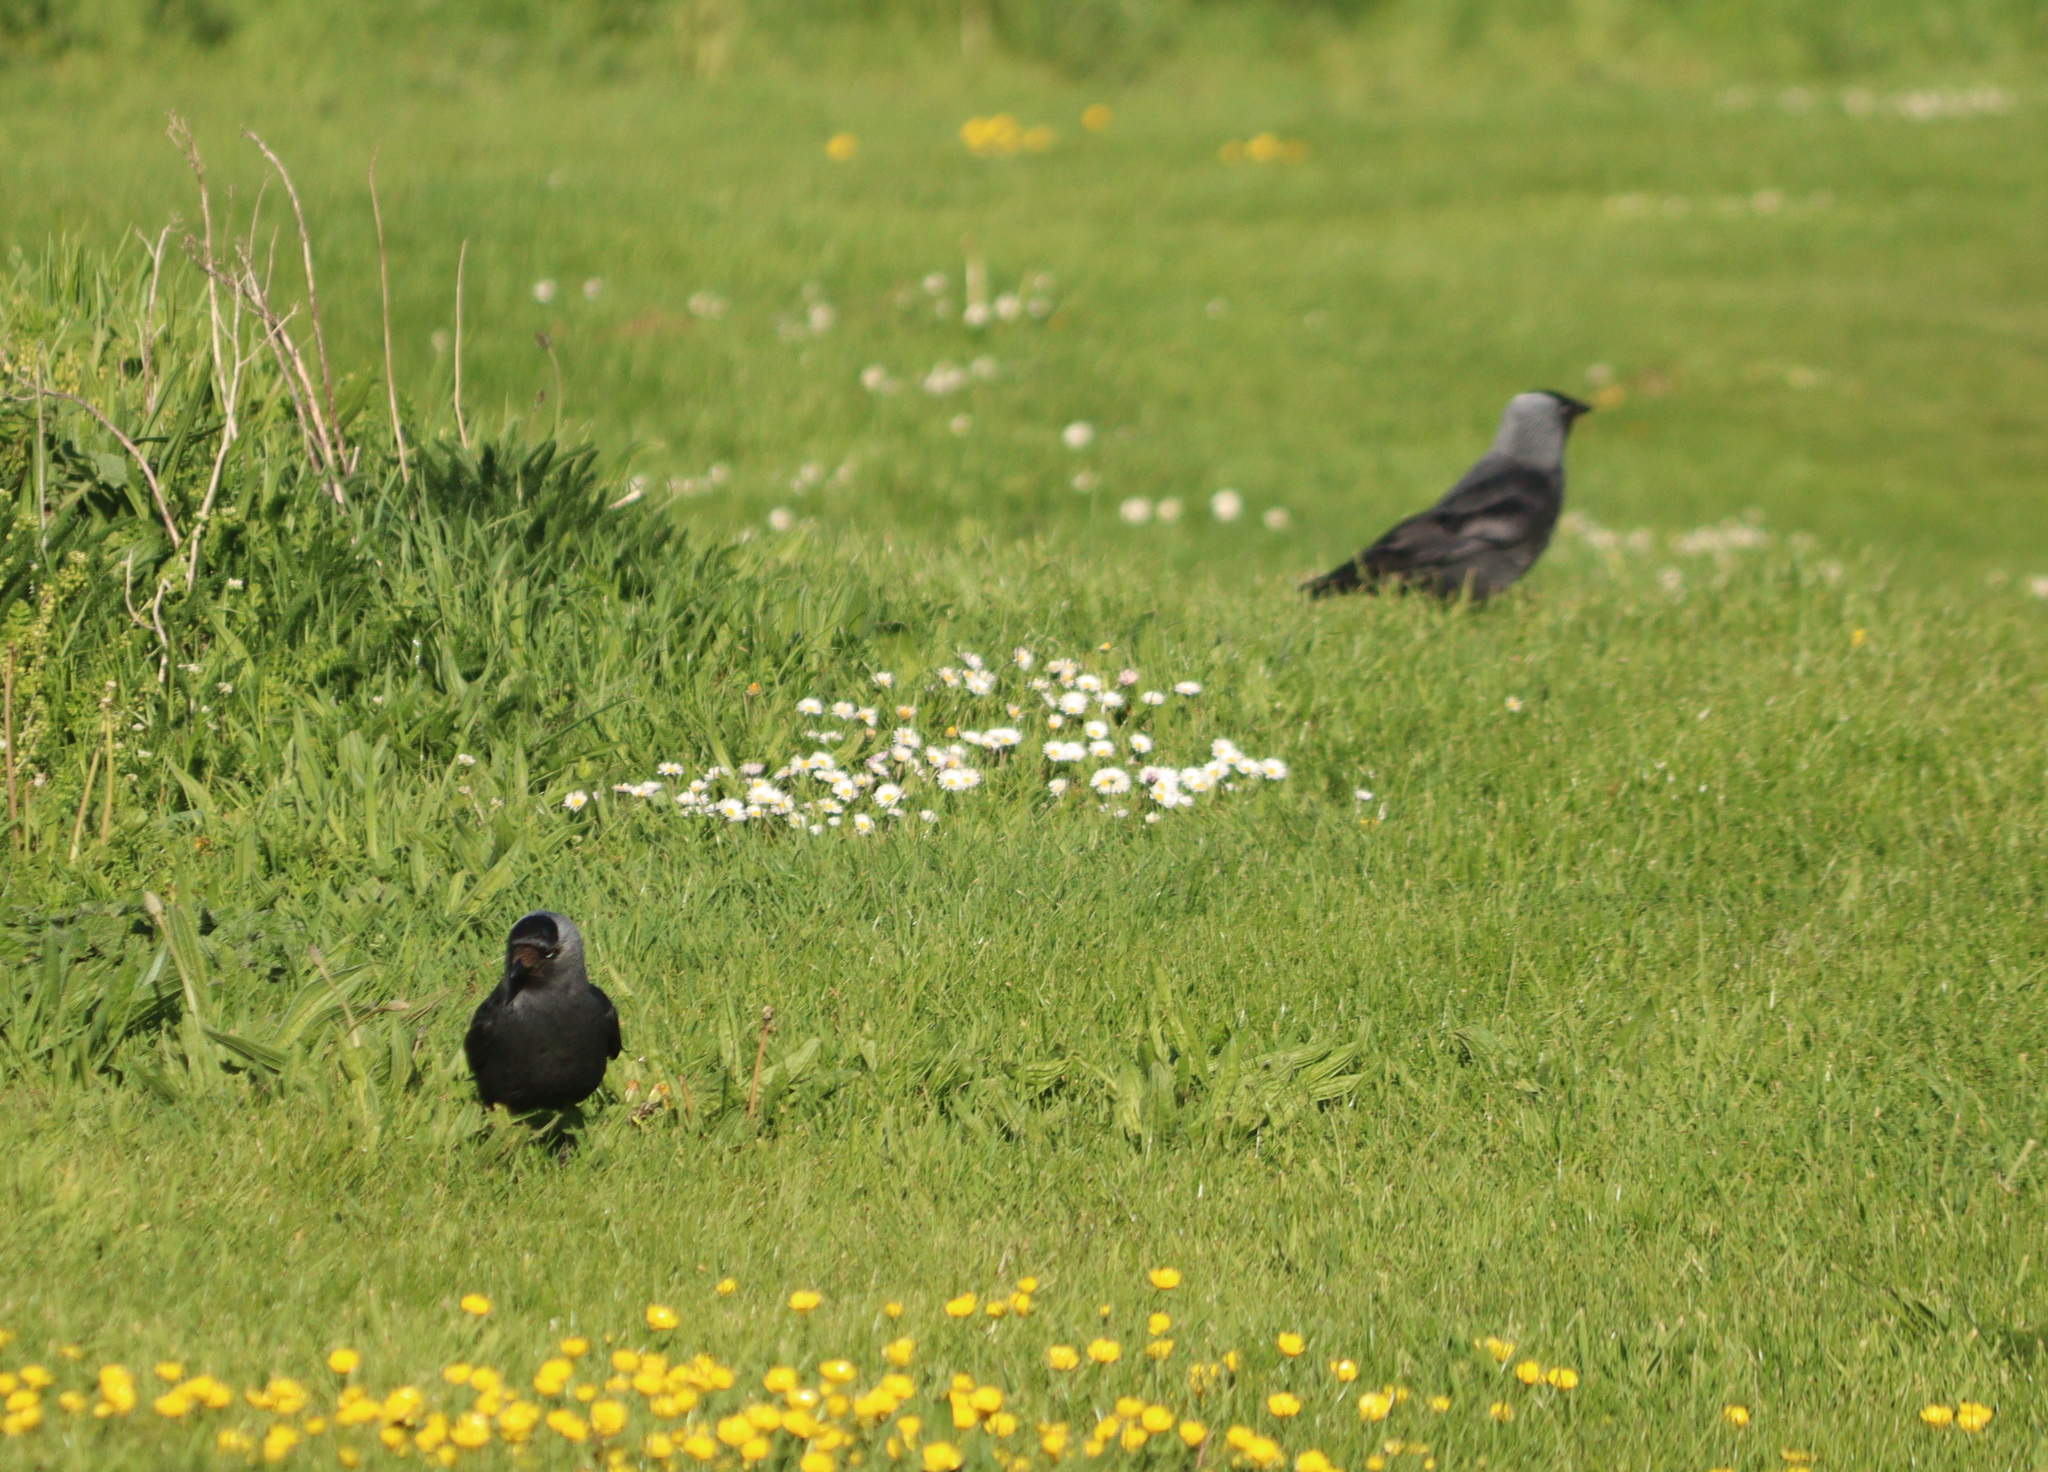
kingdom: Animalia
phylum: Chordata
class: Aves
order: Passeriformes
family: Corvidae
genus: Coloeus
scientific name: Coloeus monedula
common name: Western jackdaw
